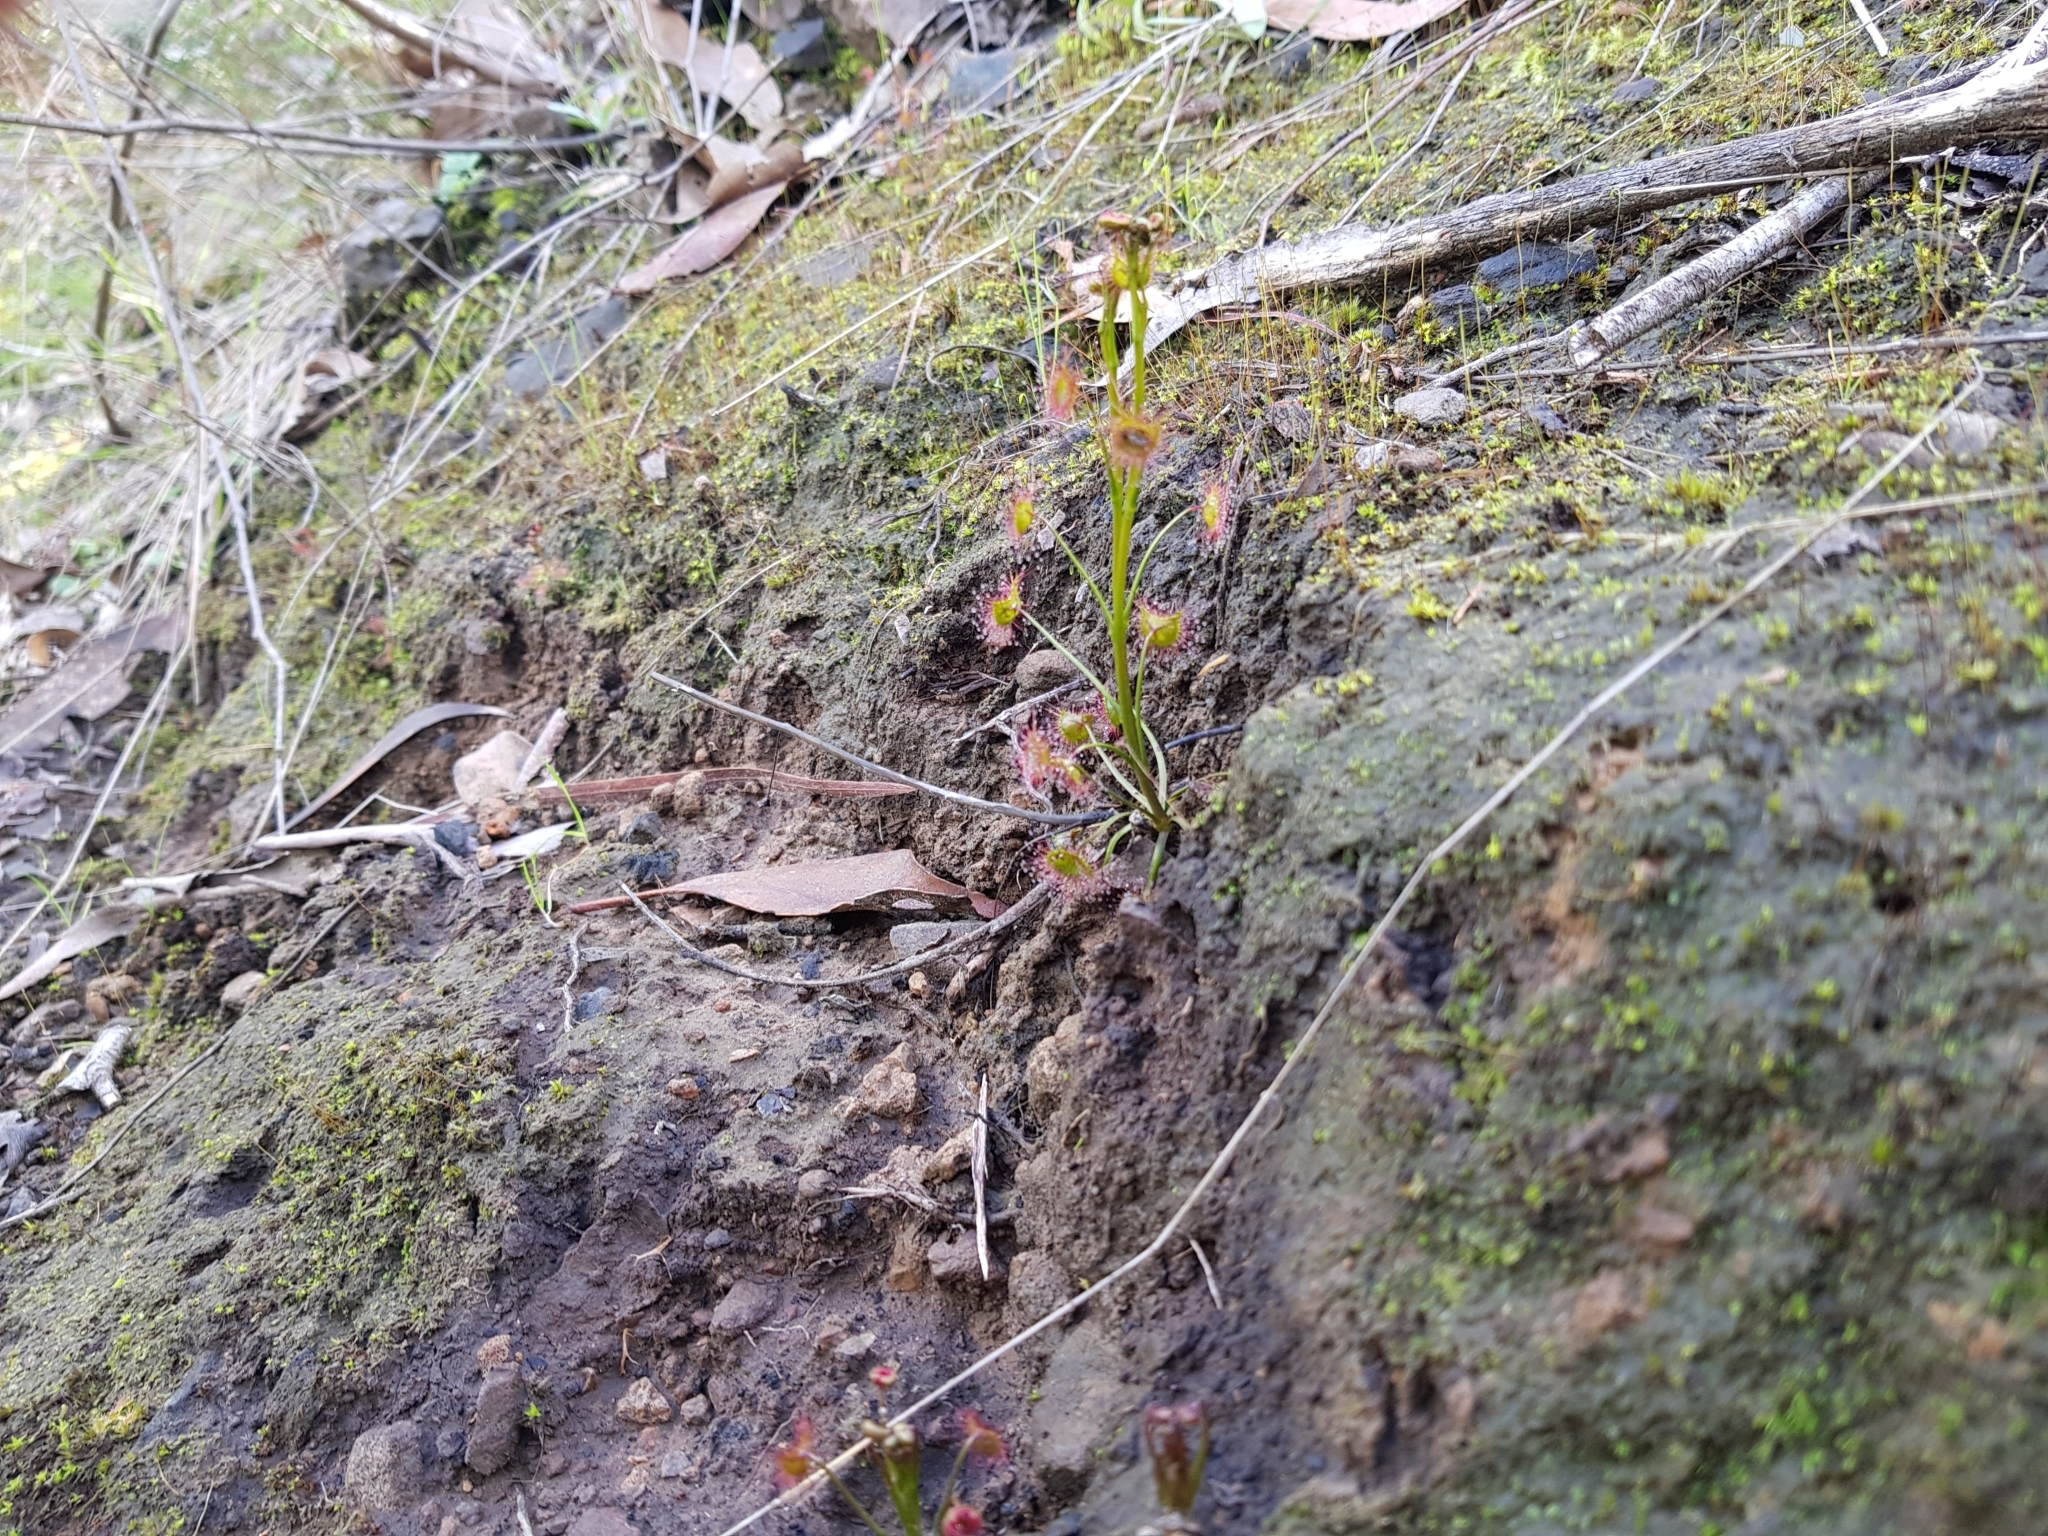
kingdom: Plantae
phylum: Tracheophyta
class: Magnoliopsida
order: Caryophyllales
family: Droseraceae
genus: Drosera
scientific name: Drosera peltata
